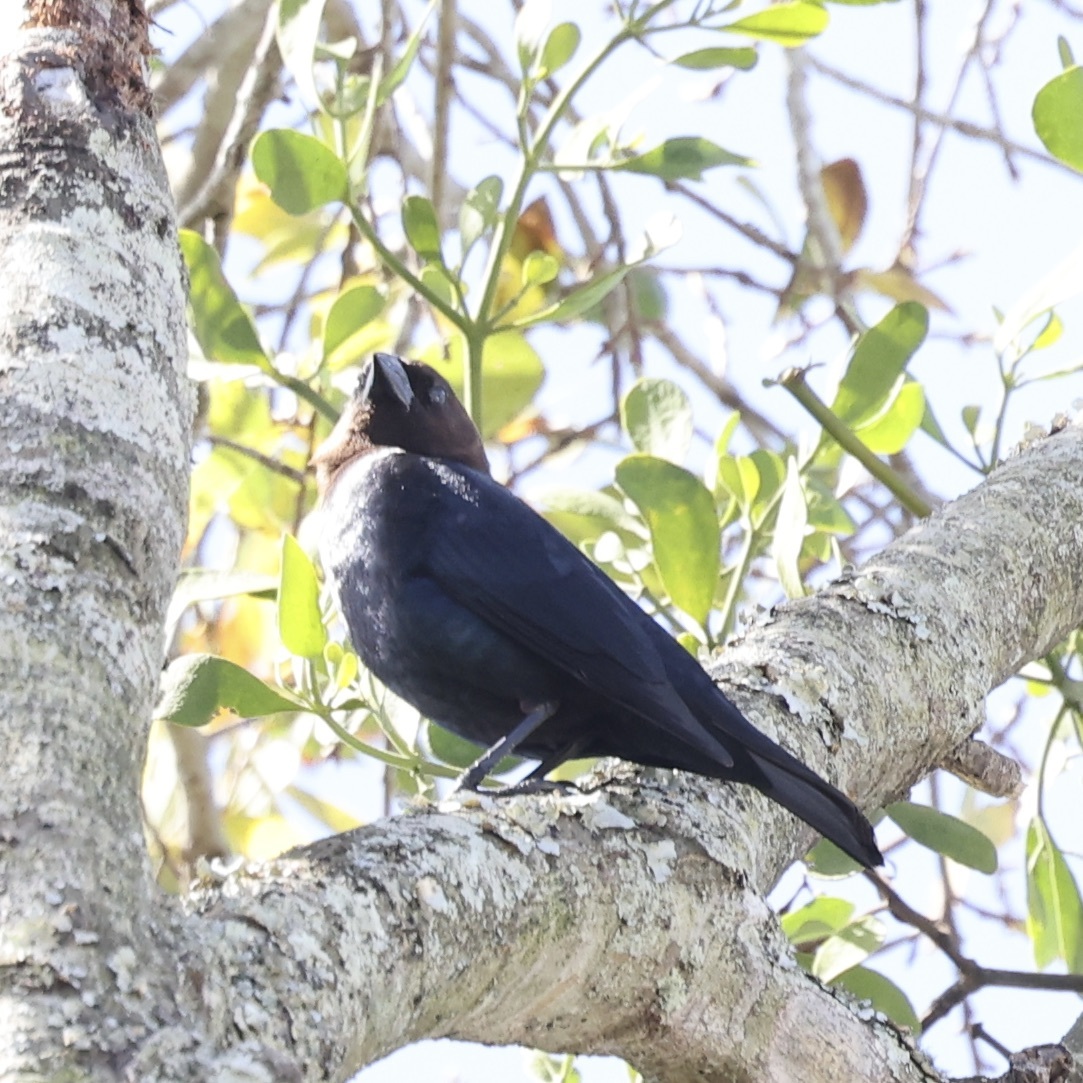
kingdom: Animalia
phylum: Chordata
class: Aves
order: Passeriformes
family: Icteridae
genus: Molothrus
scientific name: Molothrus ater
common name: Brown-headed cowbird
